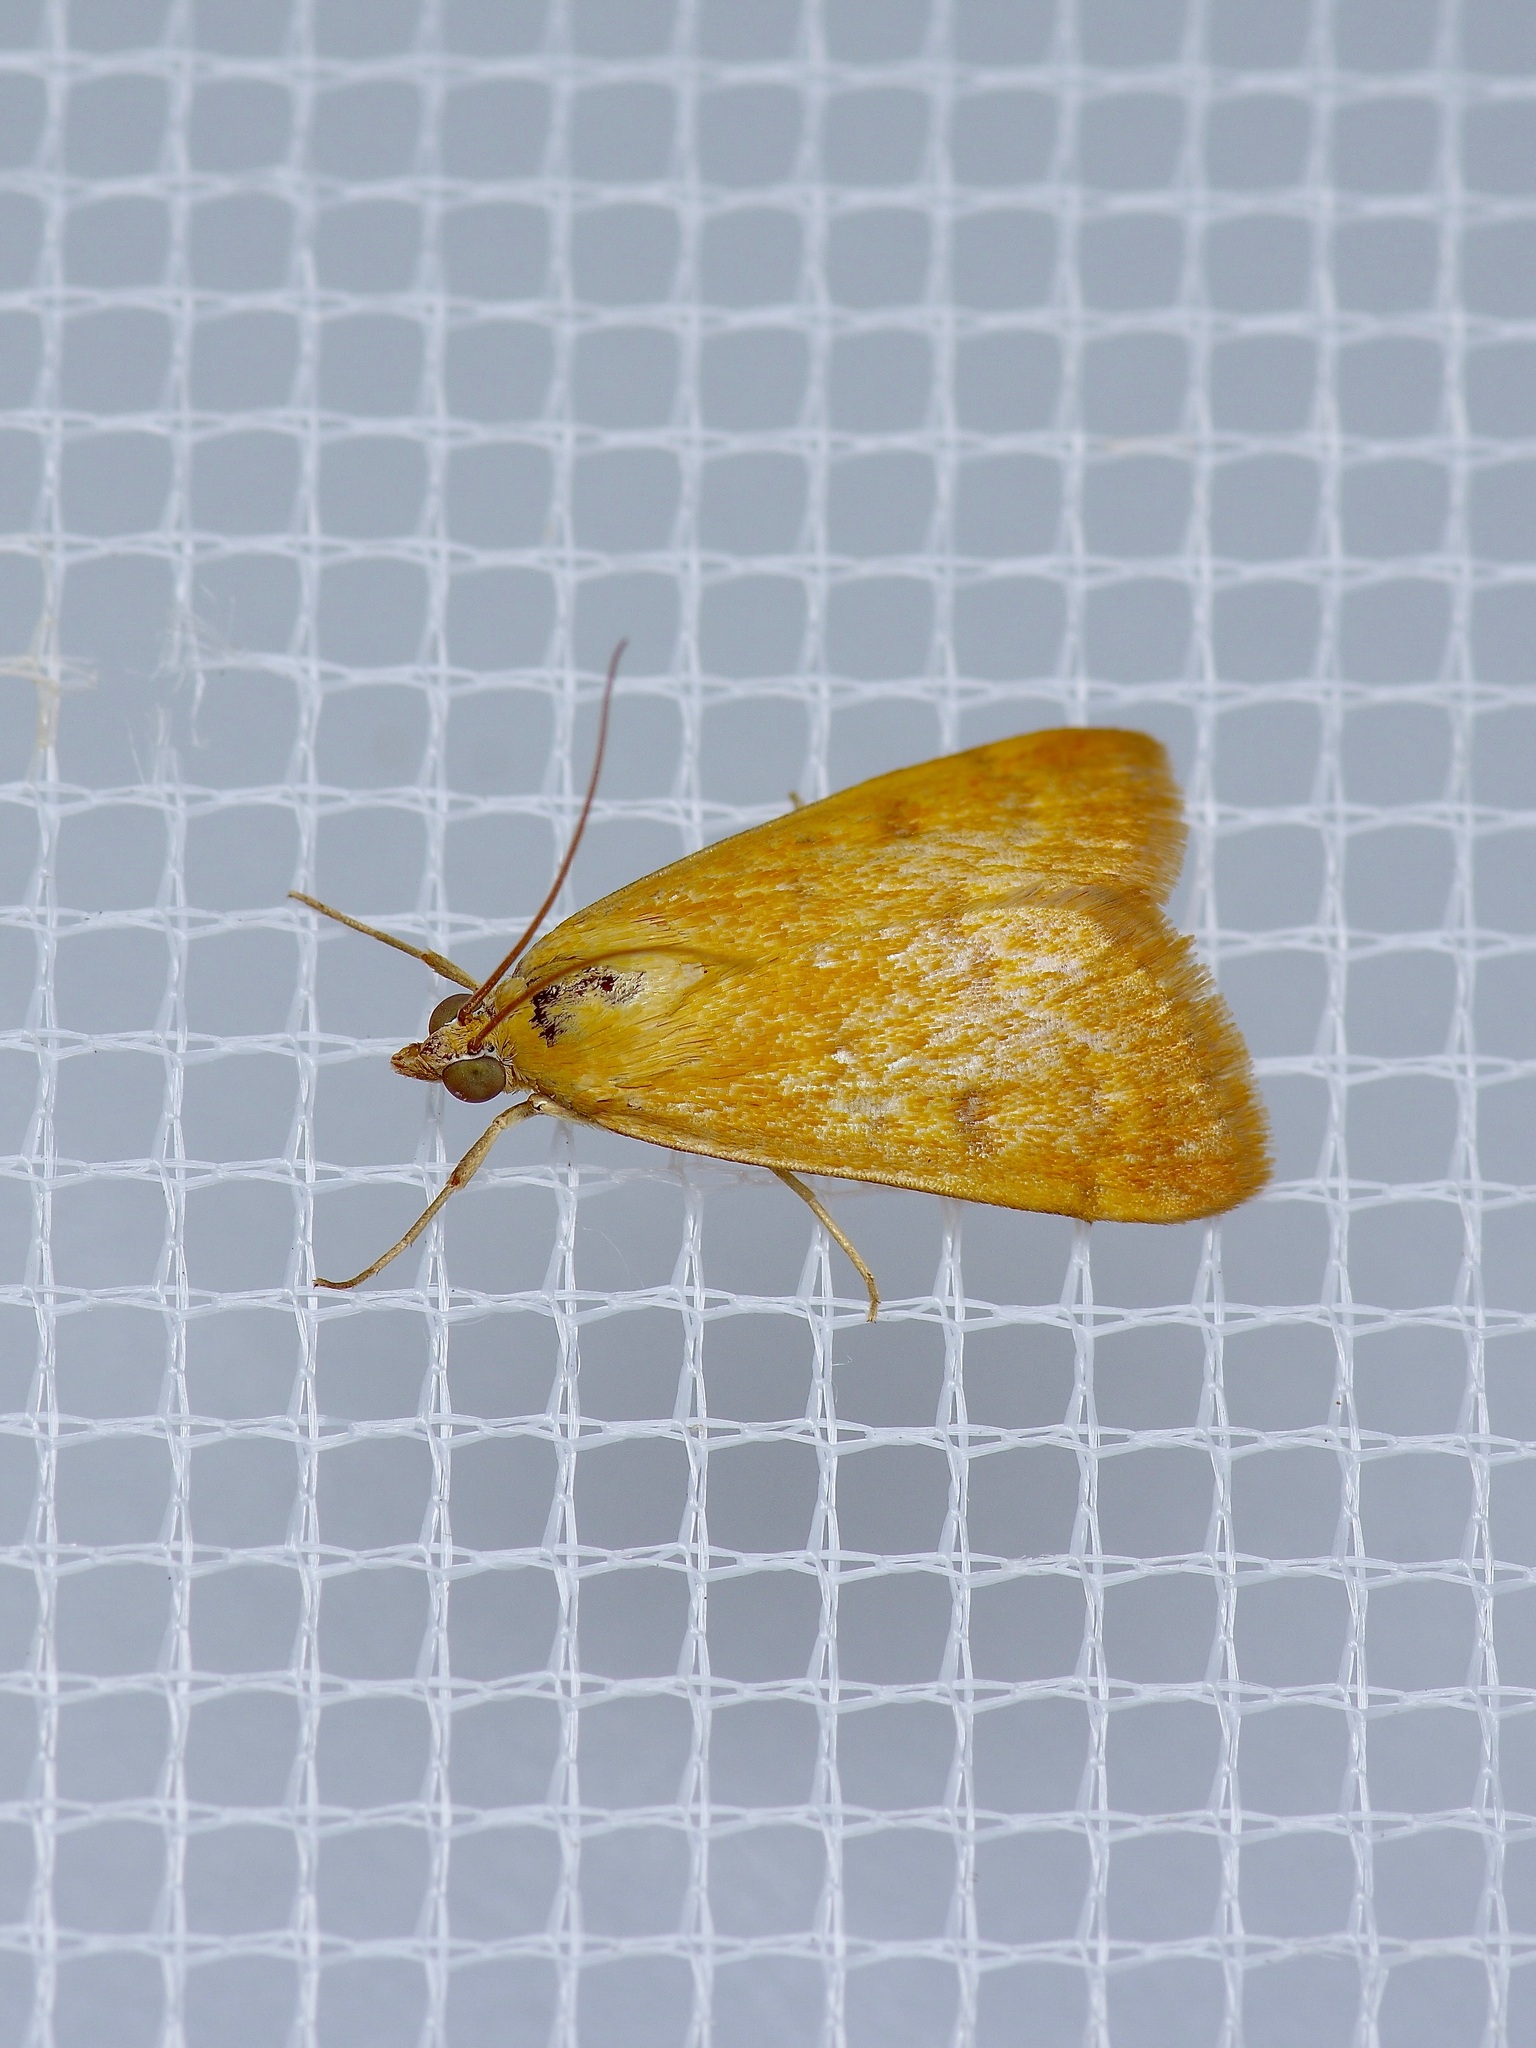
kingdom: Animalia
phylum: Arthropoda
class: Insecta
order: Lepidoptera
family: Crambidae
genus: Achyra
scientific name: Achyra rantalis
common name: Garden webworm
